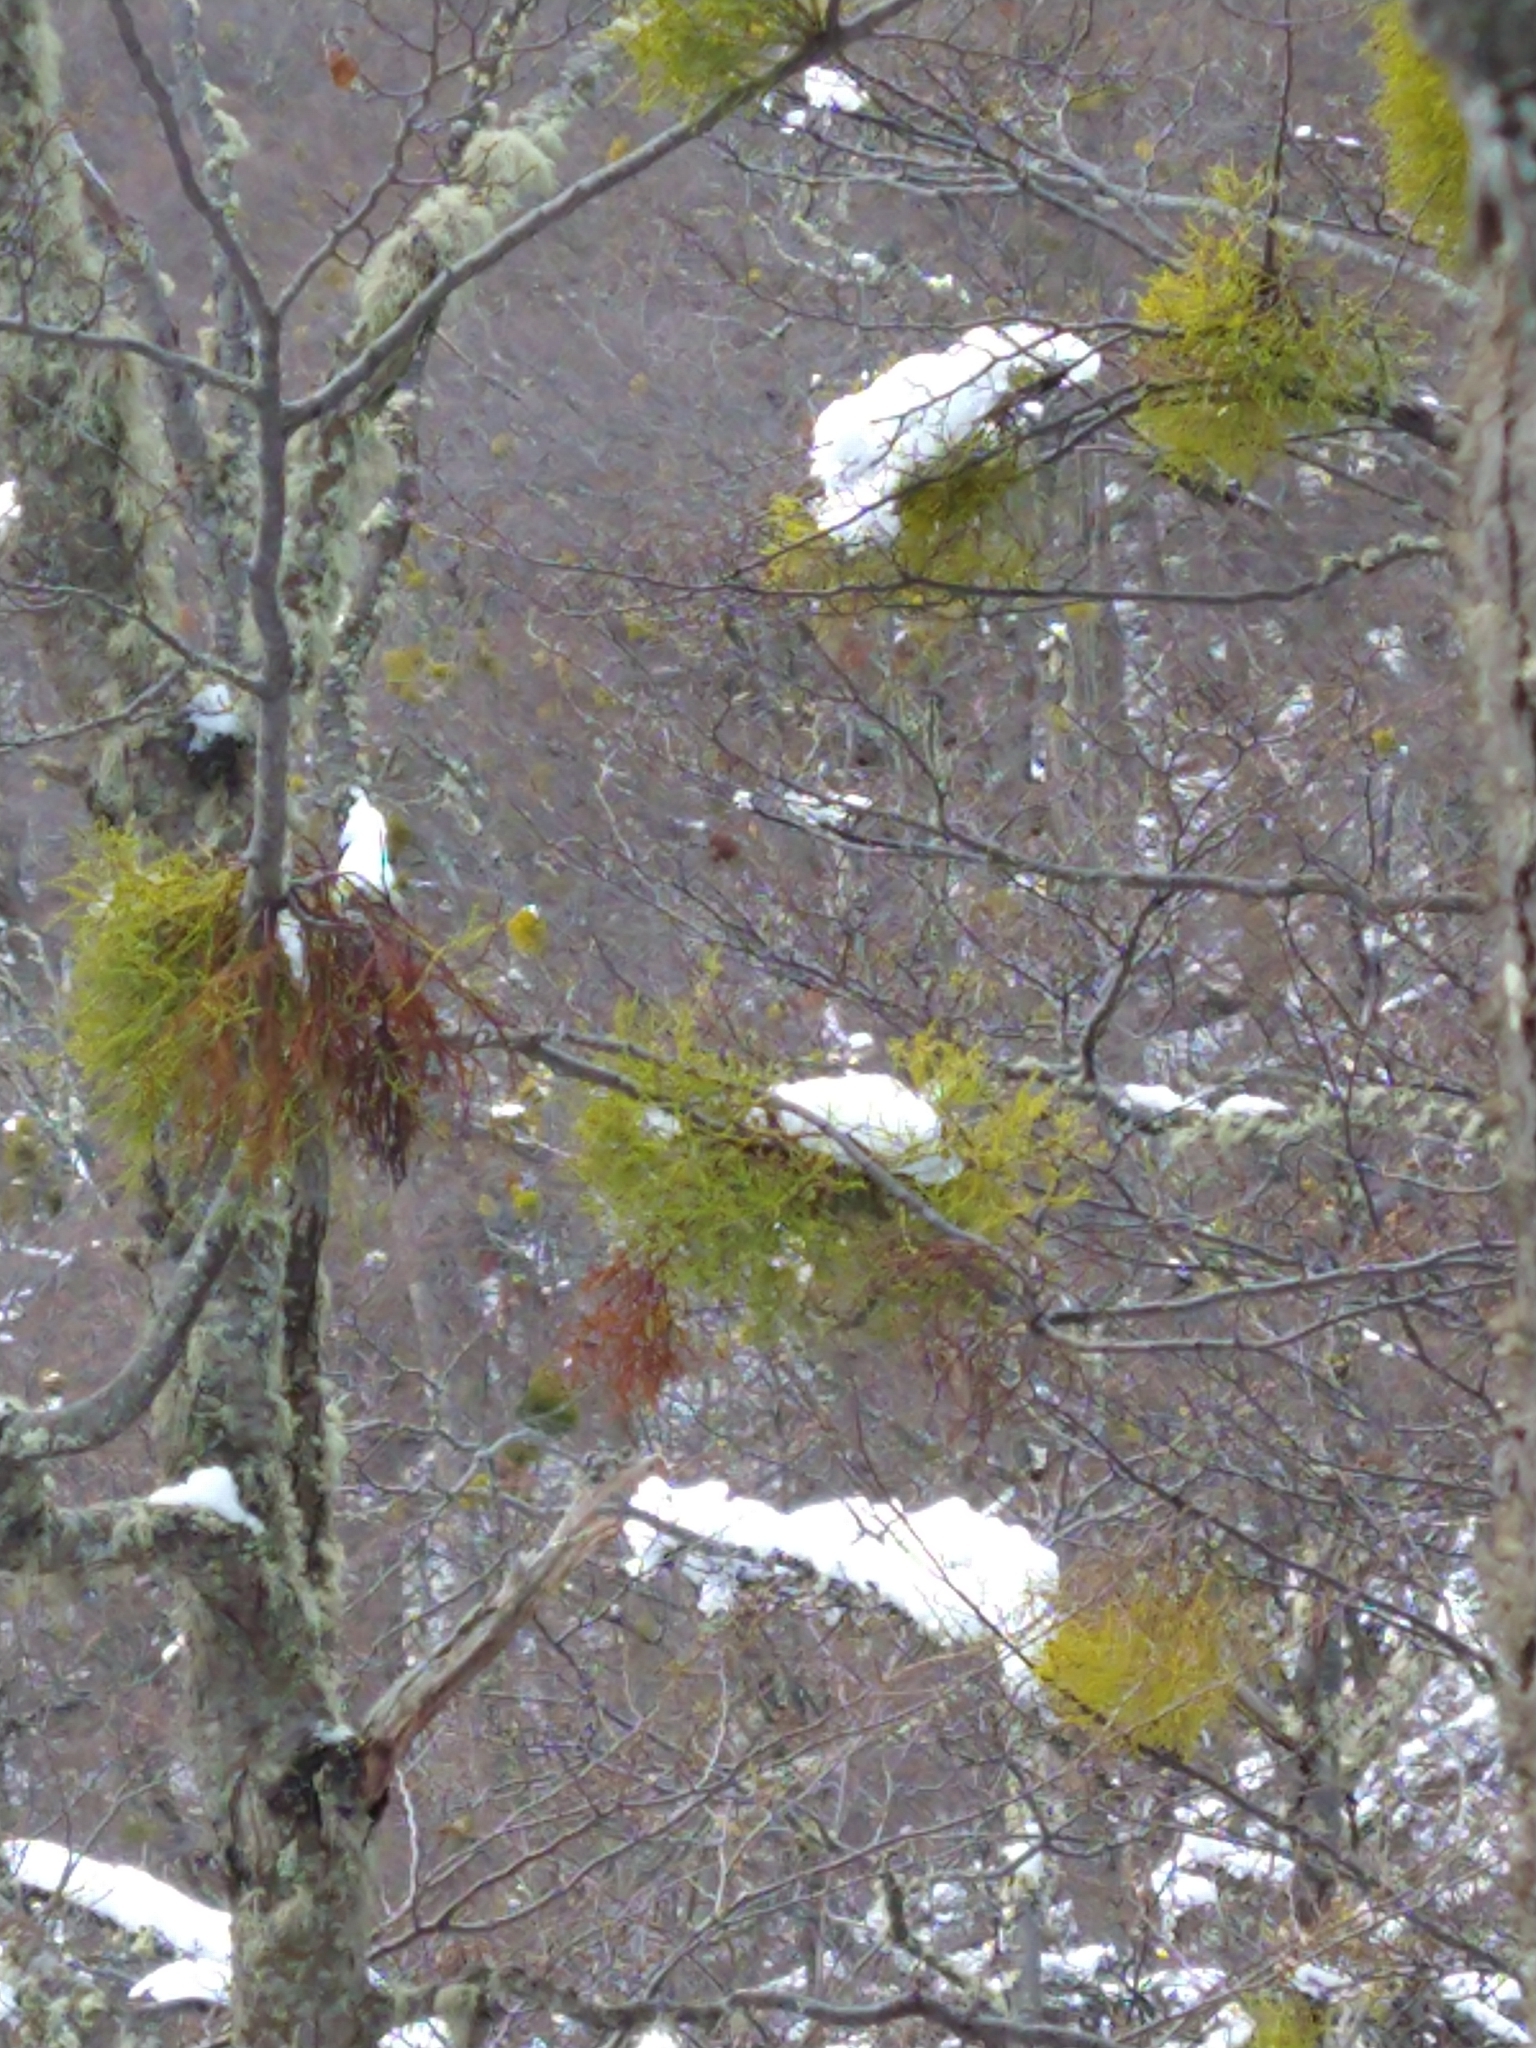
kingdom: Plantae
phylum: Tracheophyta
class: Magnoliopsida
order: Santalales
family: Misodendraceae
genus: Misodendrum
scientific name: Misodendrum punctulatum
